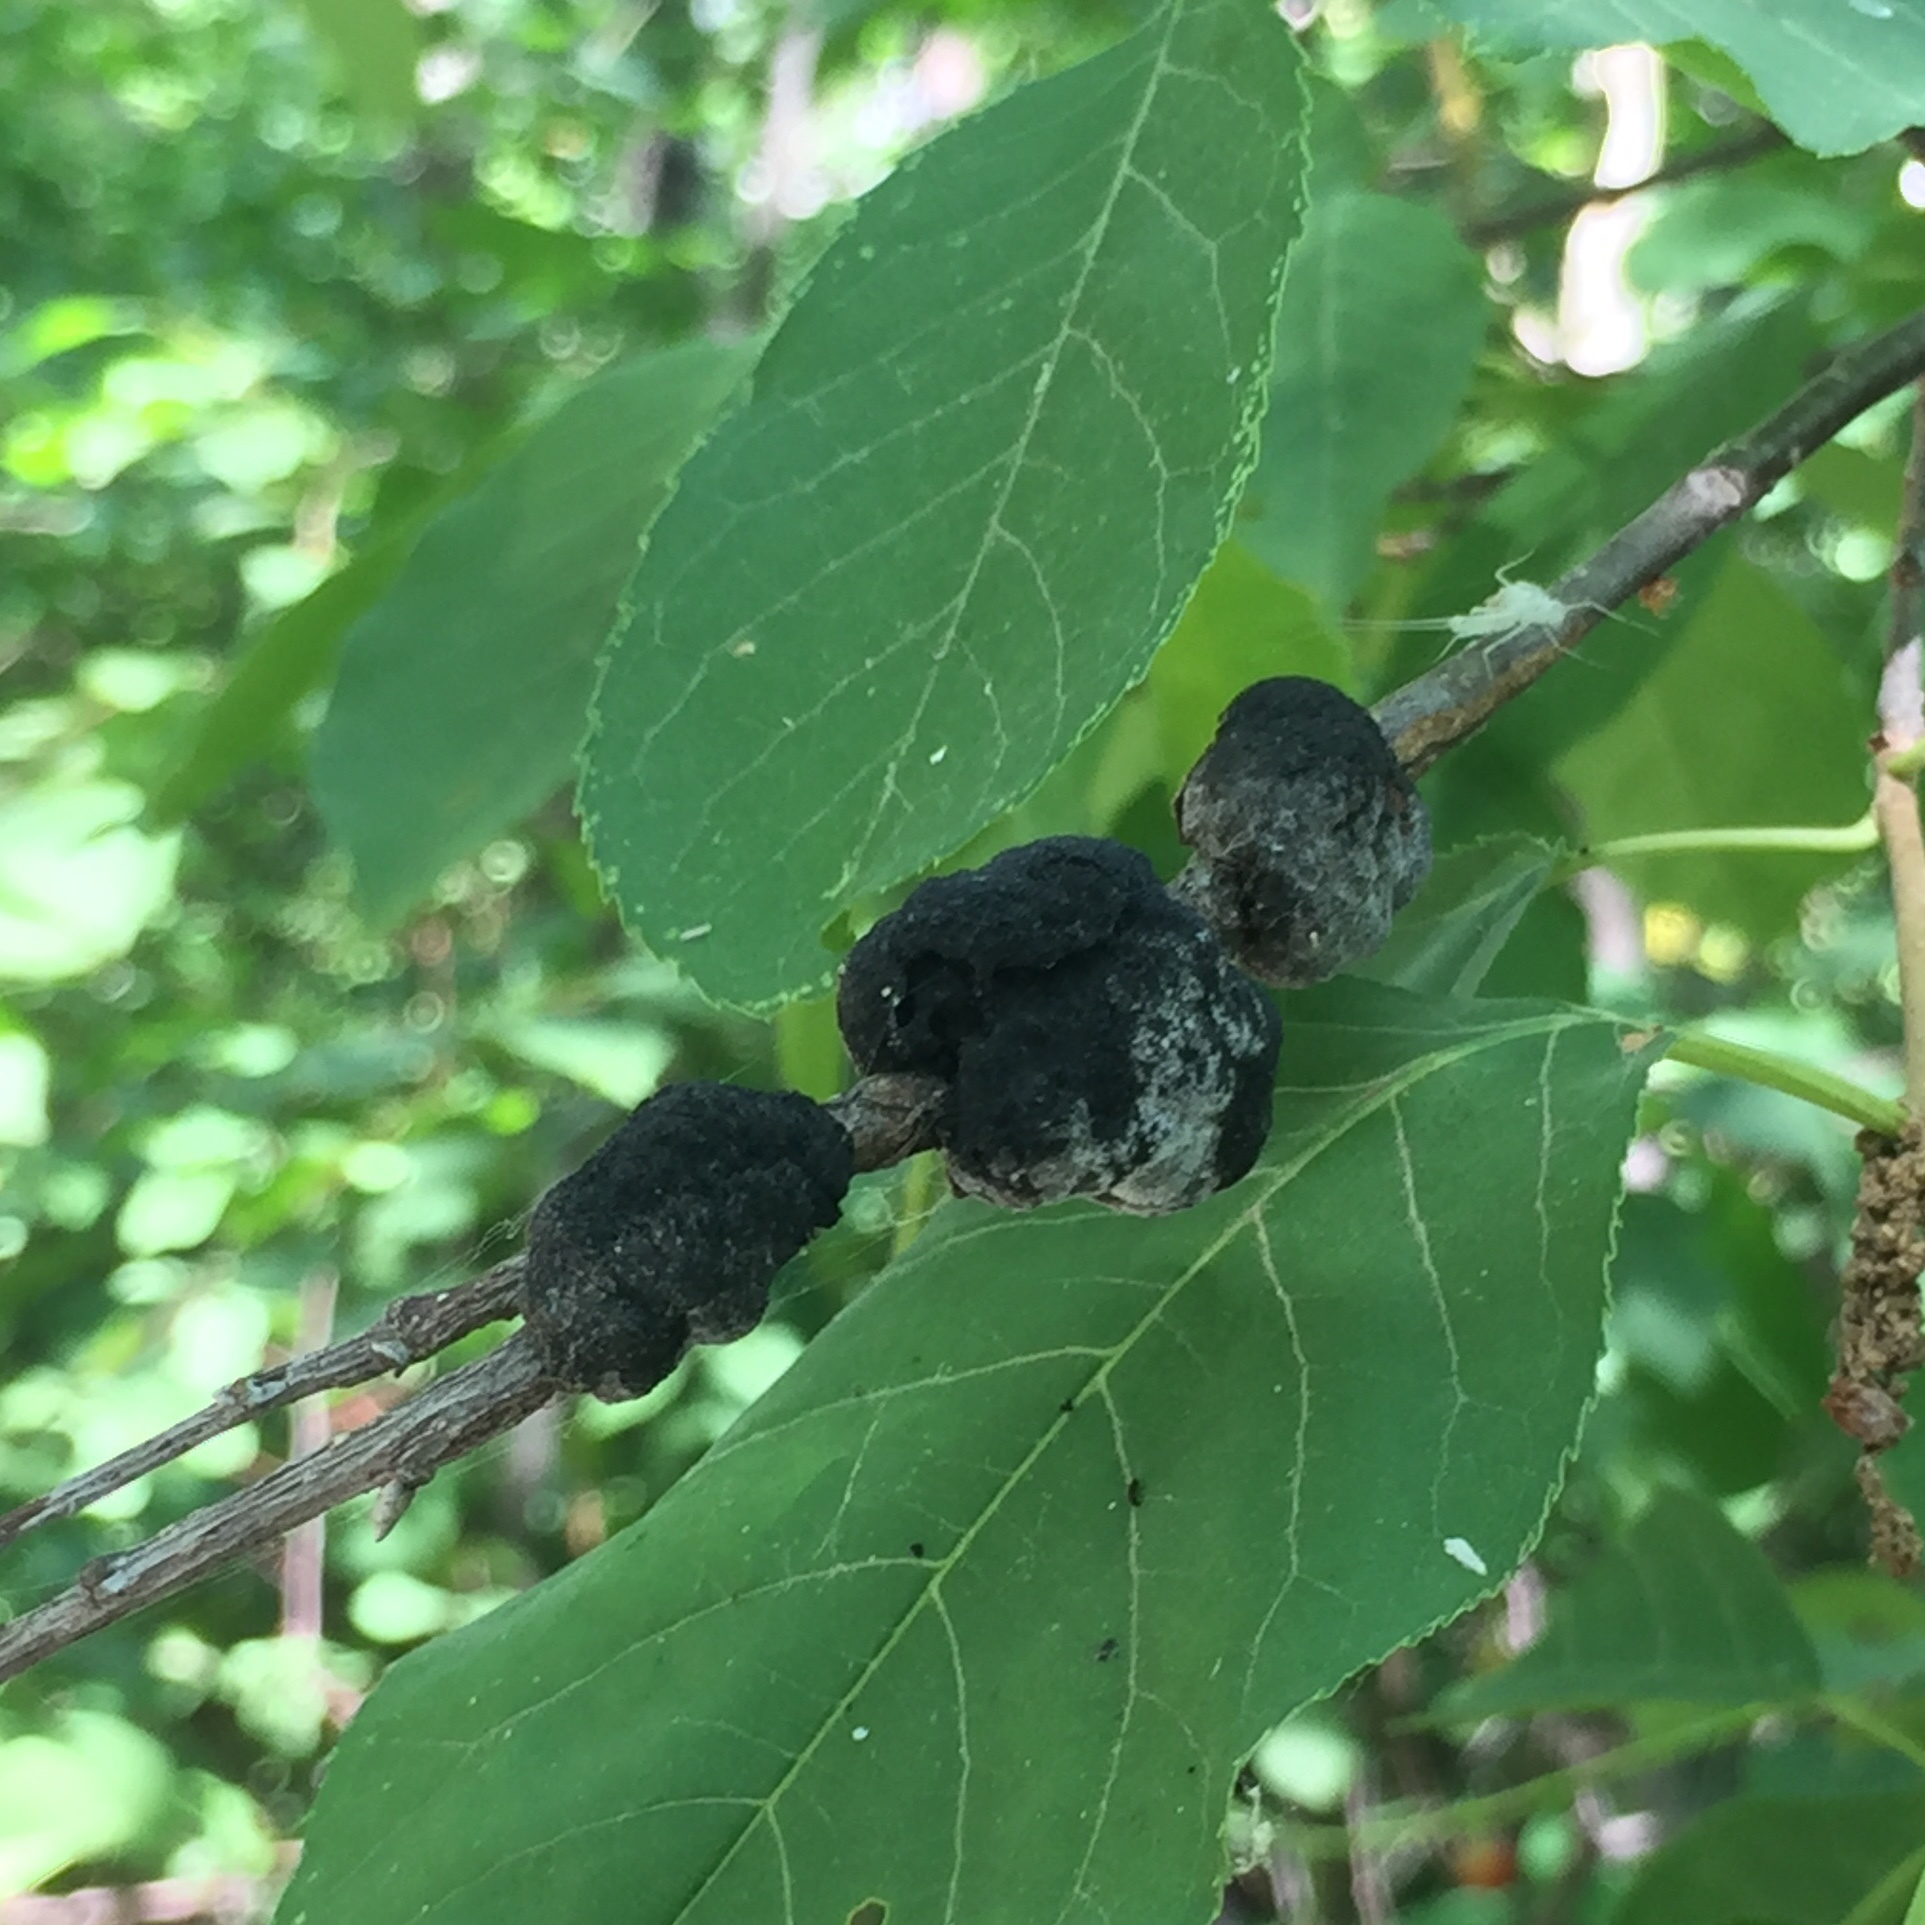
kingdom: Fungi
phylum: Ascomycota
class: Dothideomycetes
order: Venturiales
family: Venturiaceae
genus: Apiosporina
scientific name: Apiosporina morbosa
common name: Black knot
